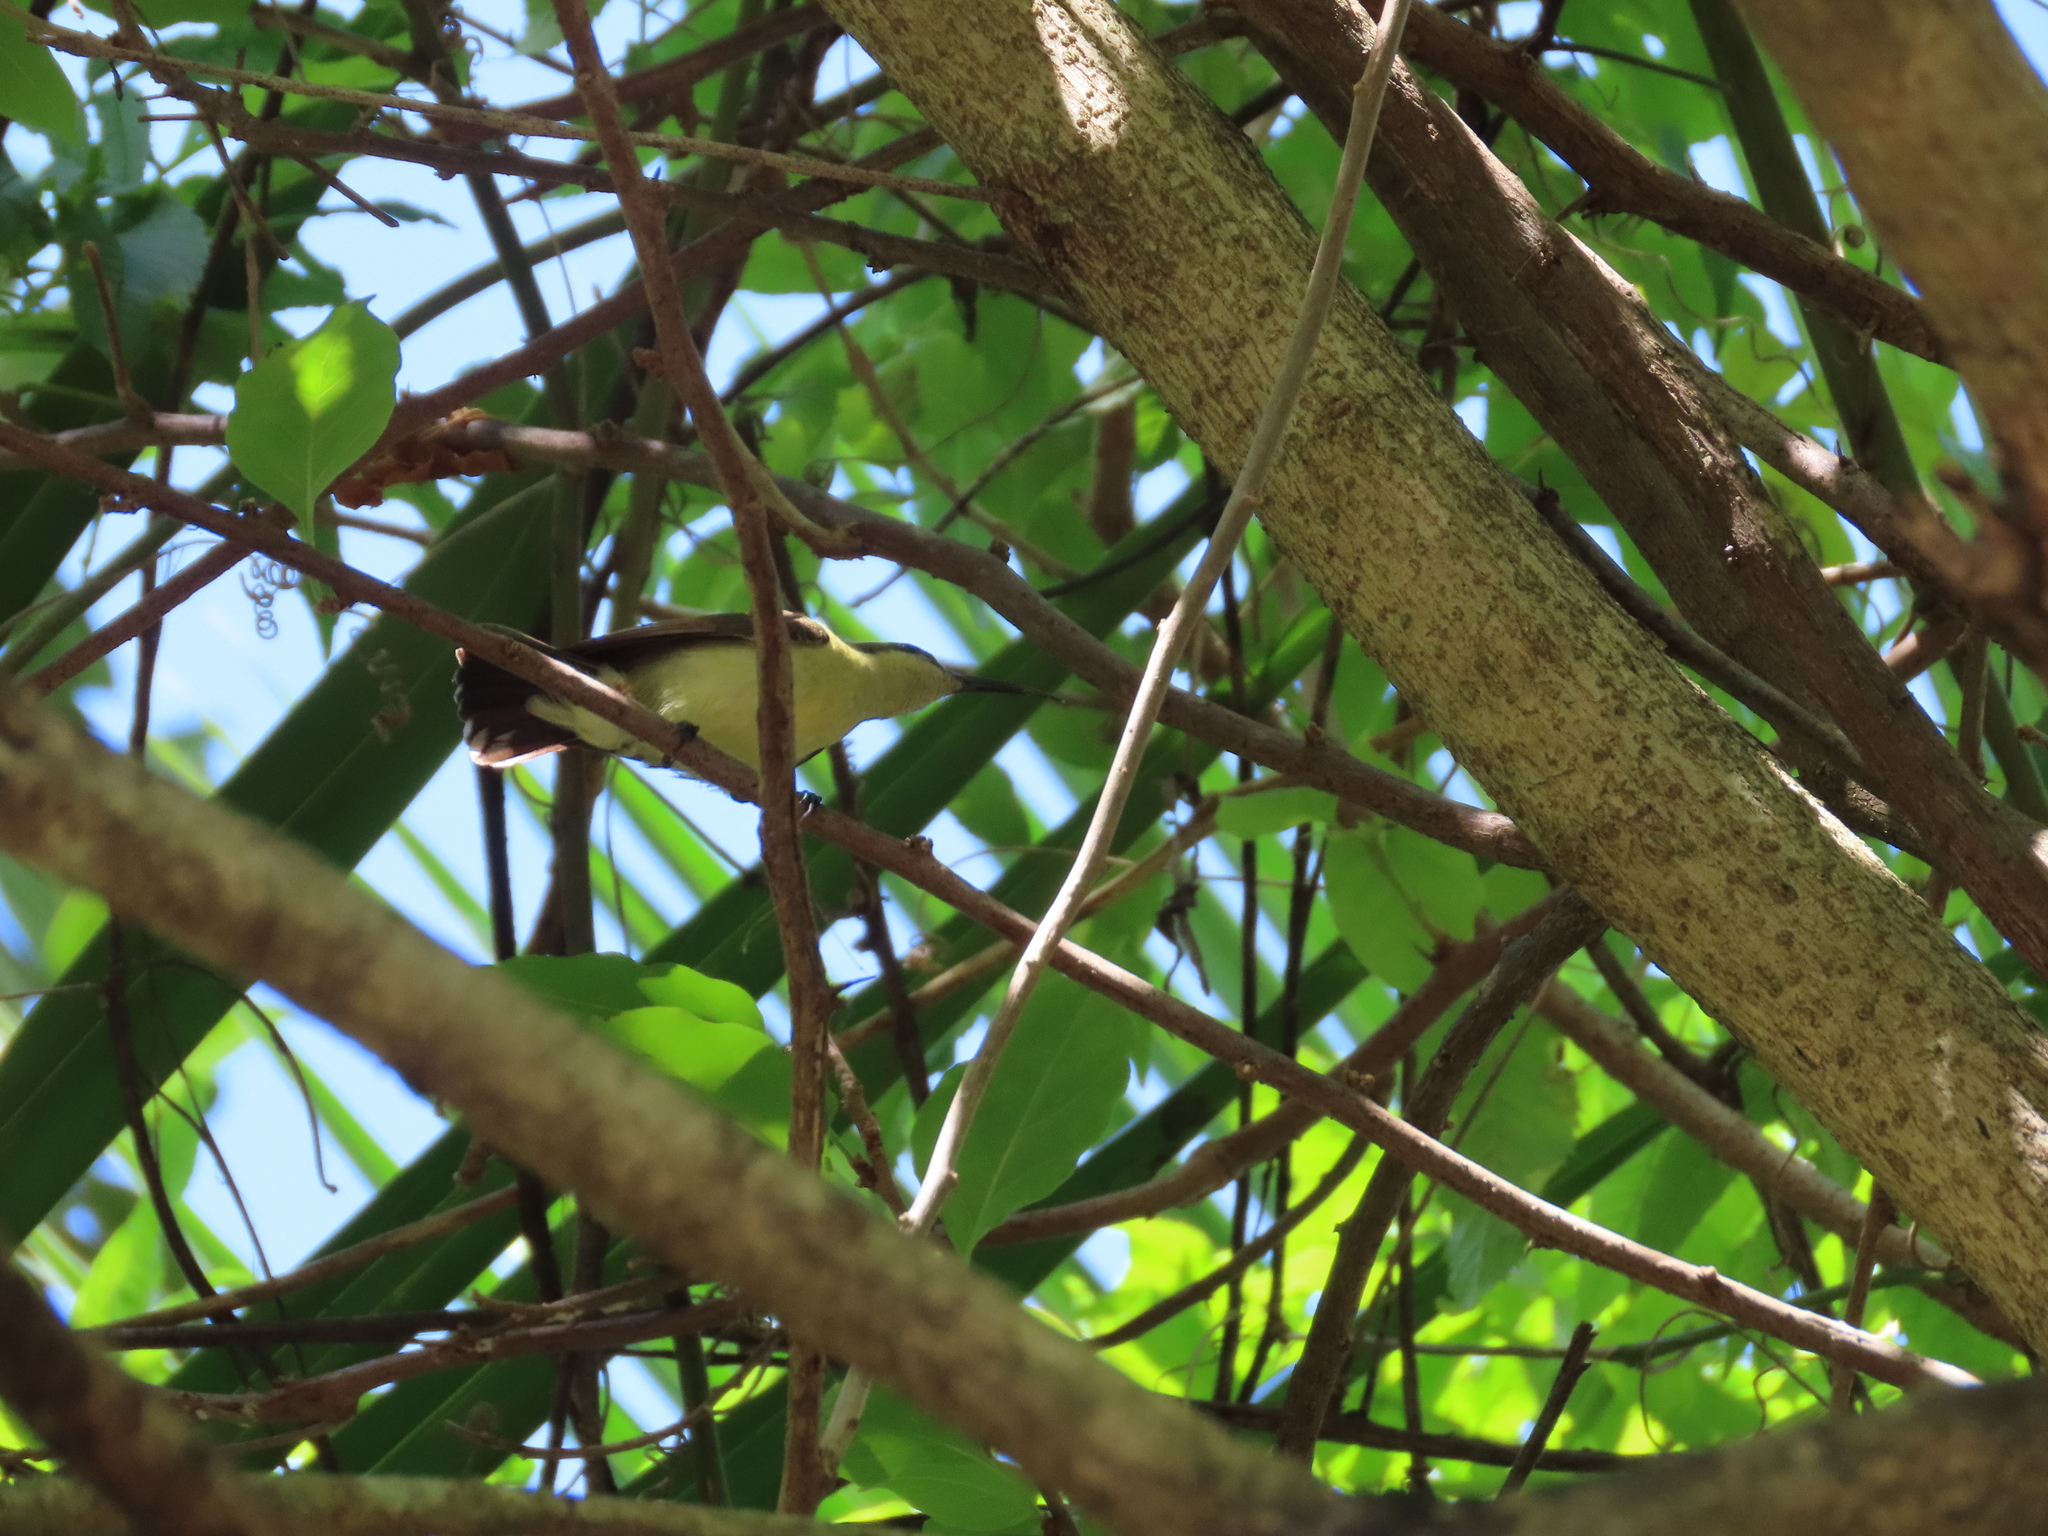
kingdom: Animalia
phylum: Chordata
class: Aves
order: Passeriformes
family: Nectariniidae
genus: Cinnyris
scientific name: Cinnyris lotenius
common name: Loten's sunbird
